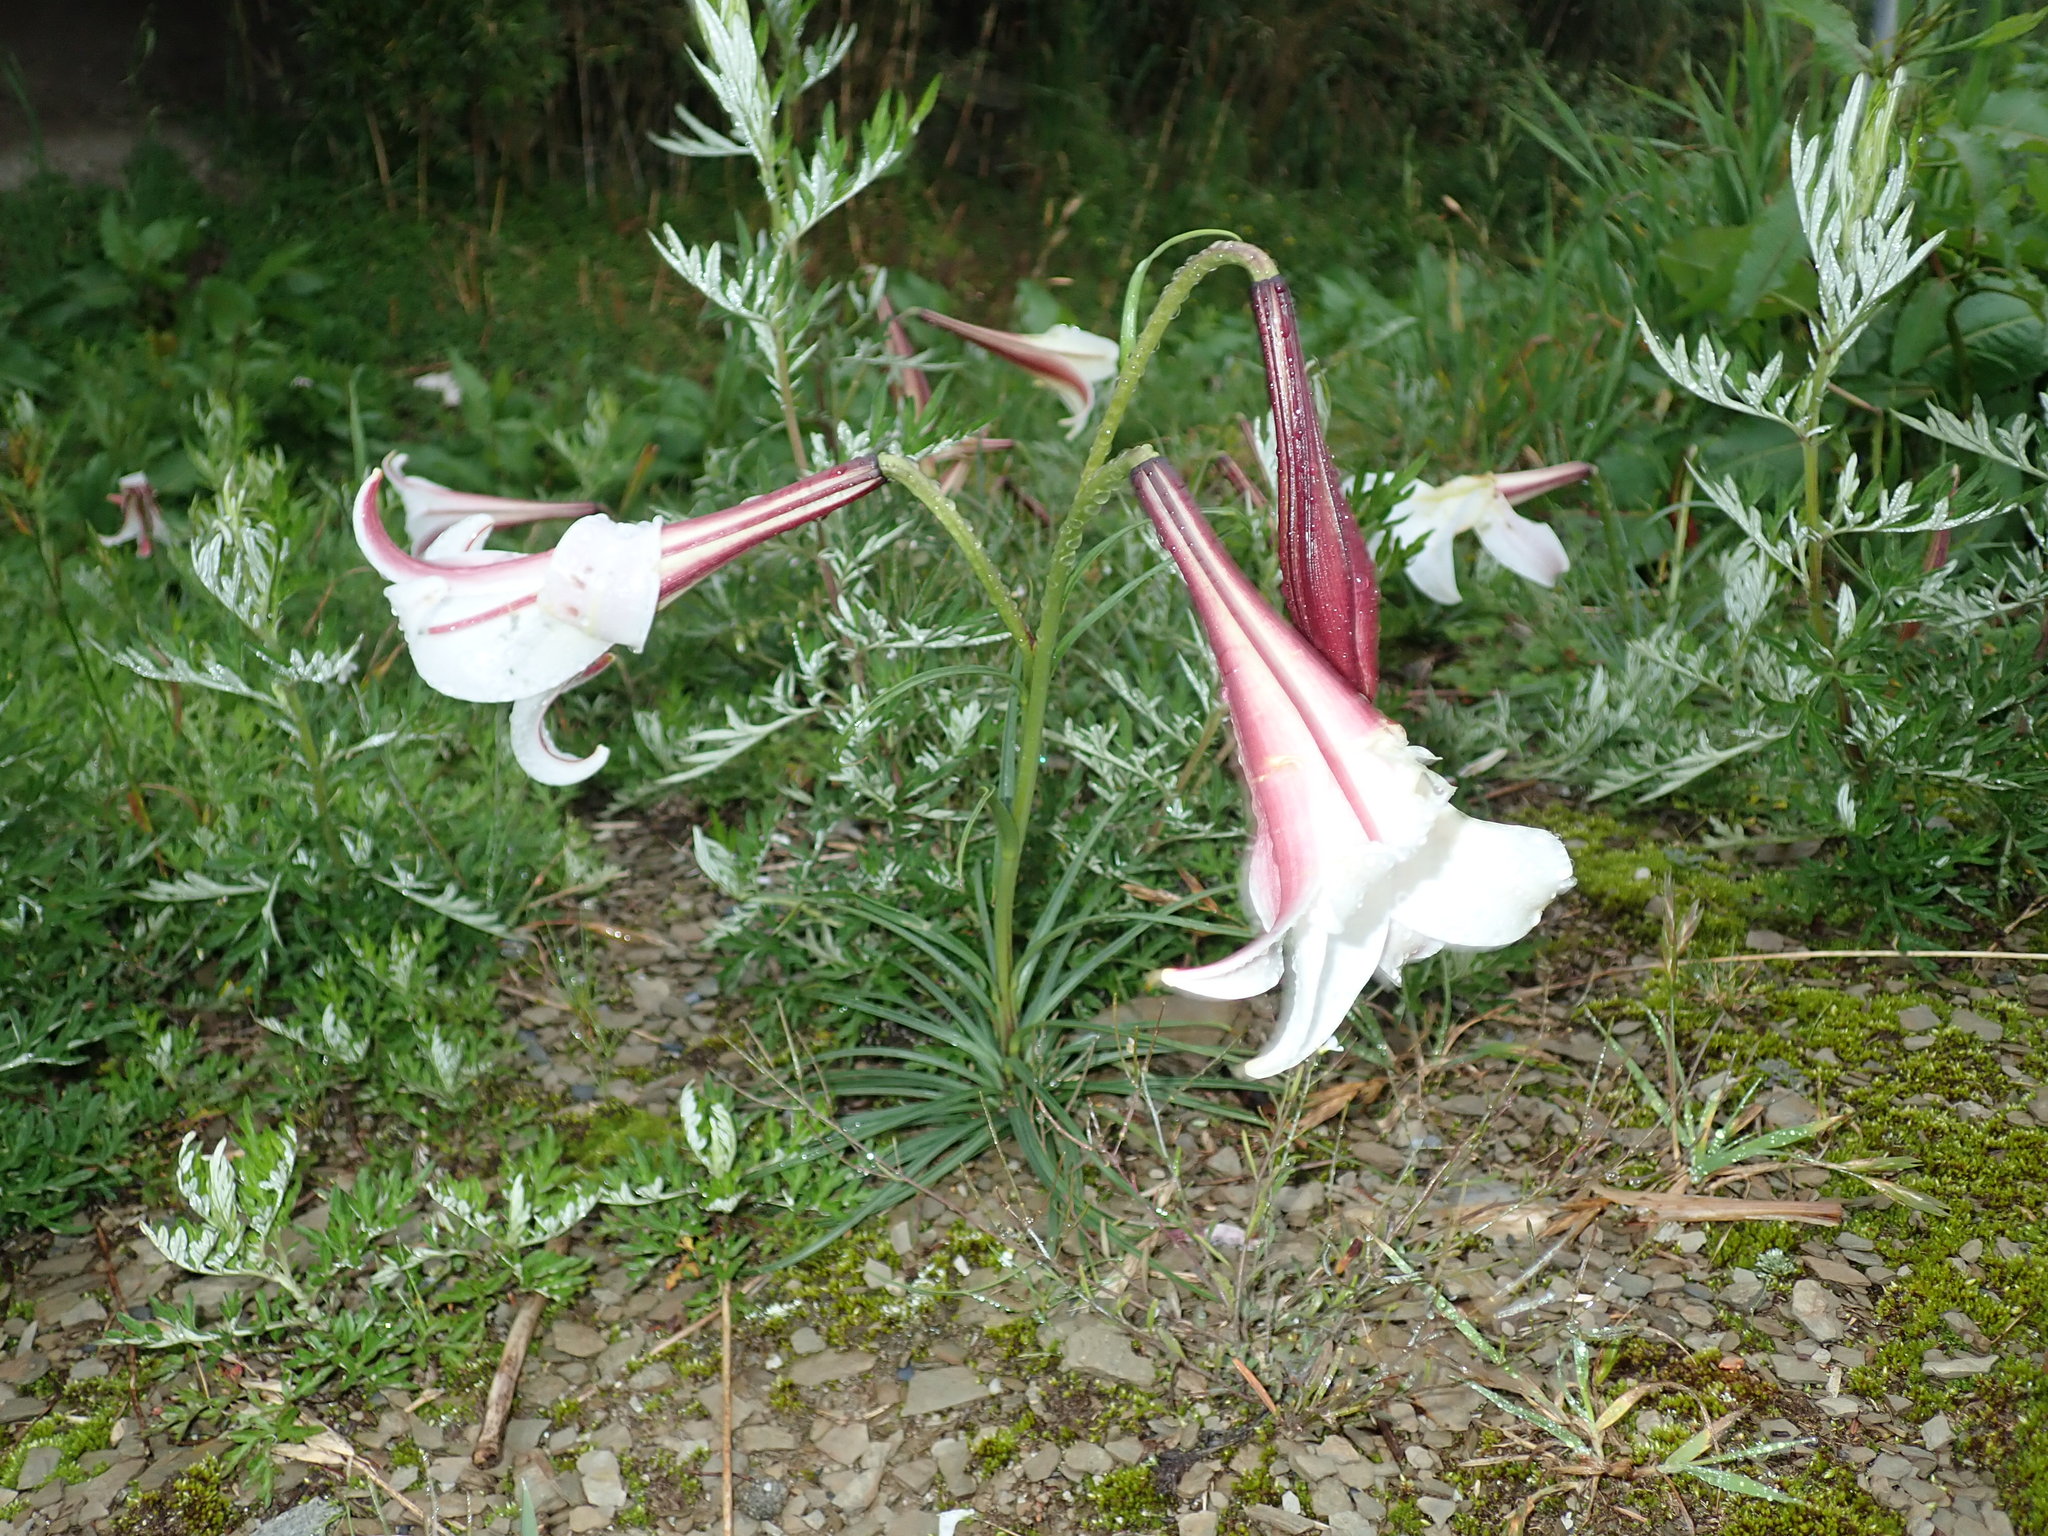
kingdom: Plantae
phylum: Tracheophyta
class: Liliopsida
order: Liliales
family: Liliaceae
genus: Lilium
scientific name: Lilium formosanum
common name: Formosa lily
